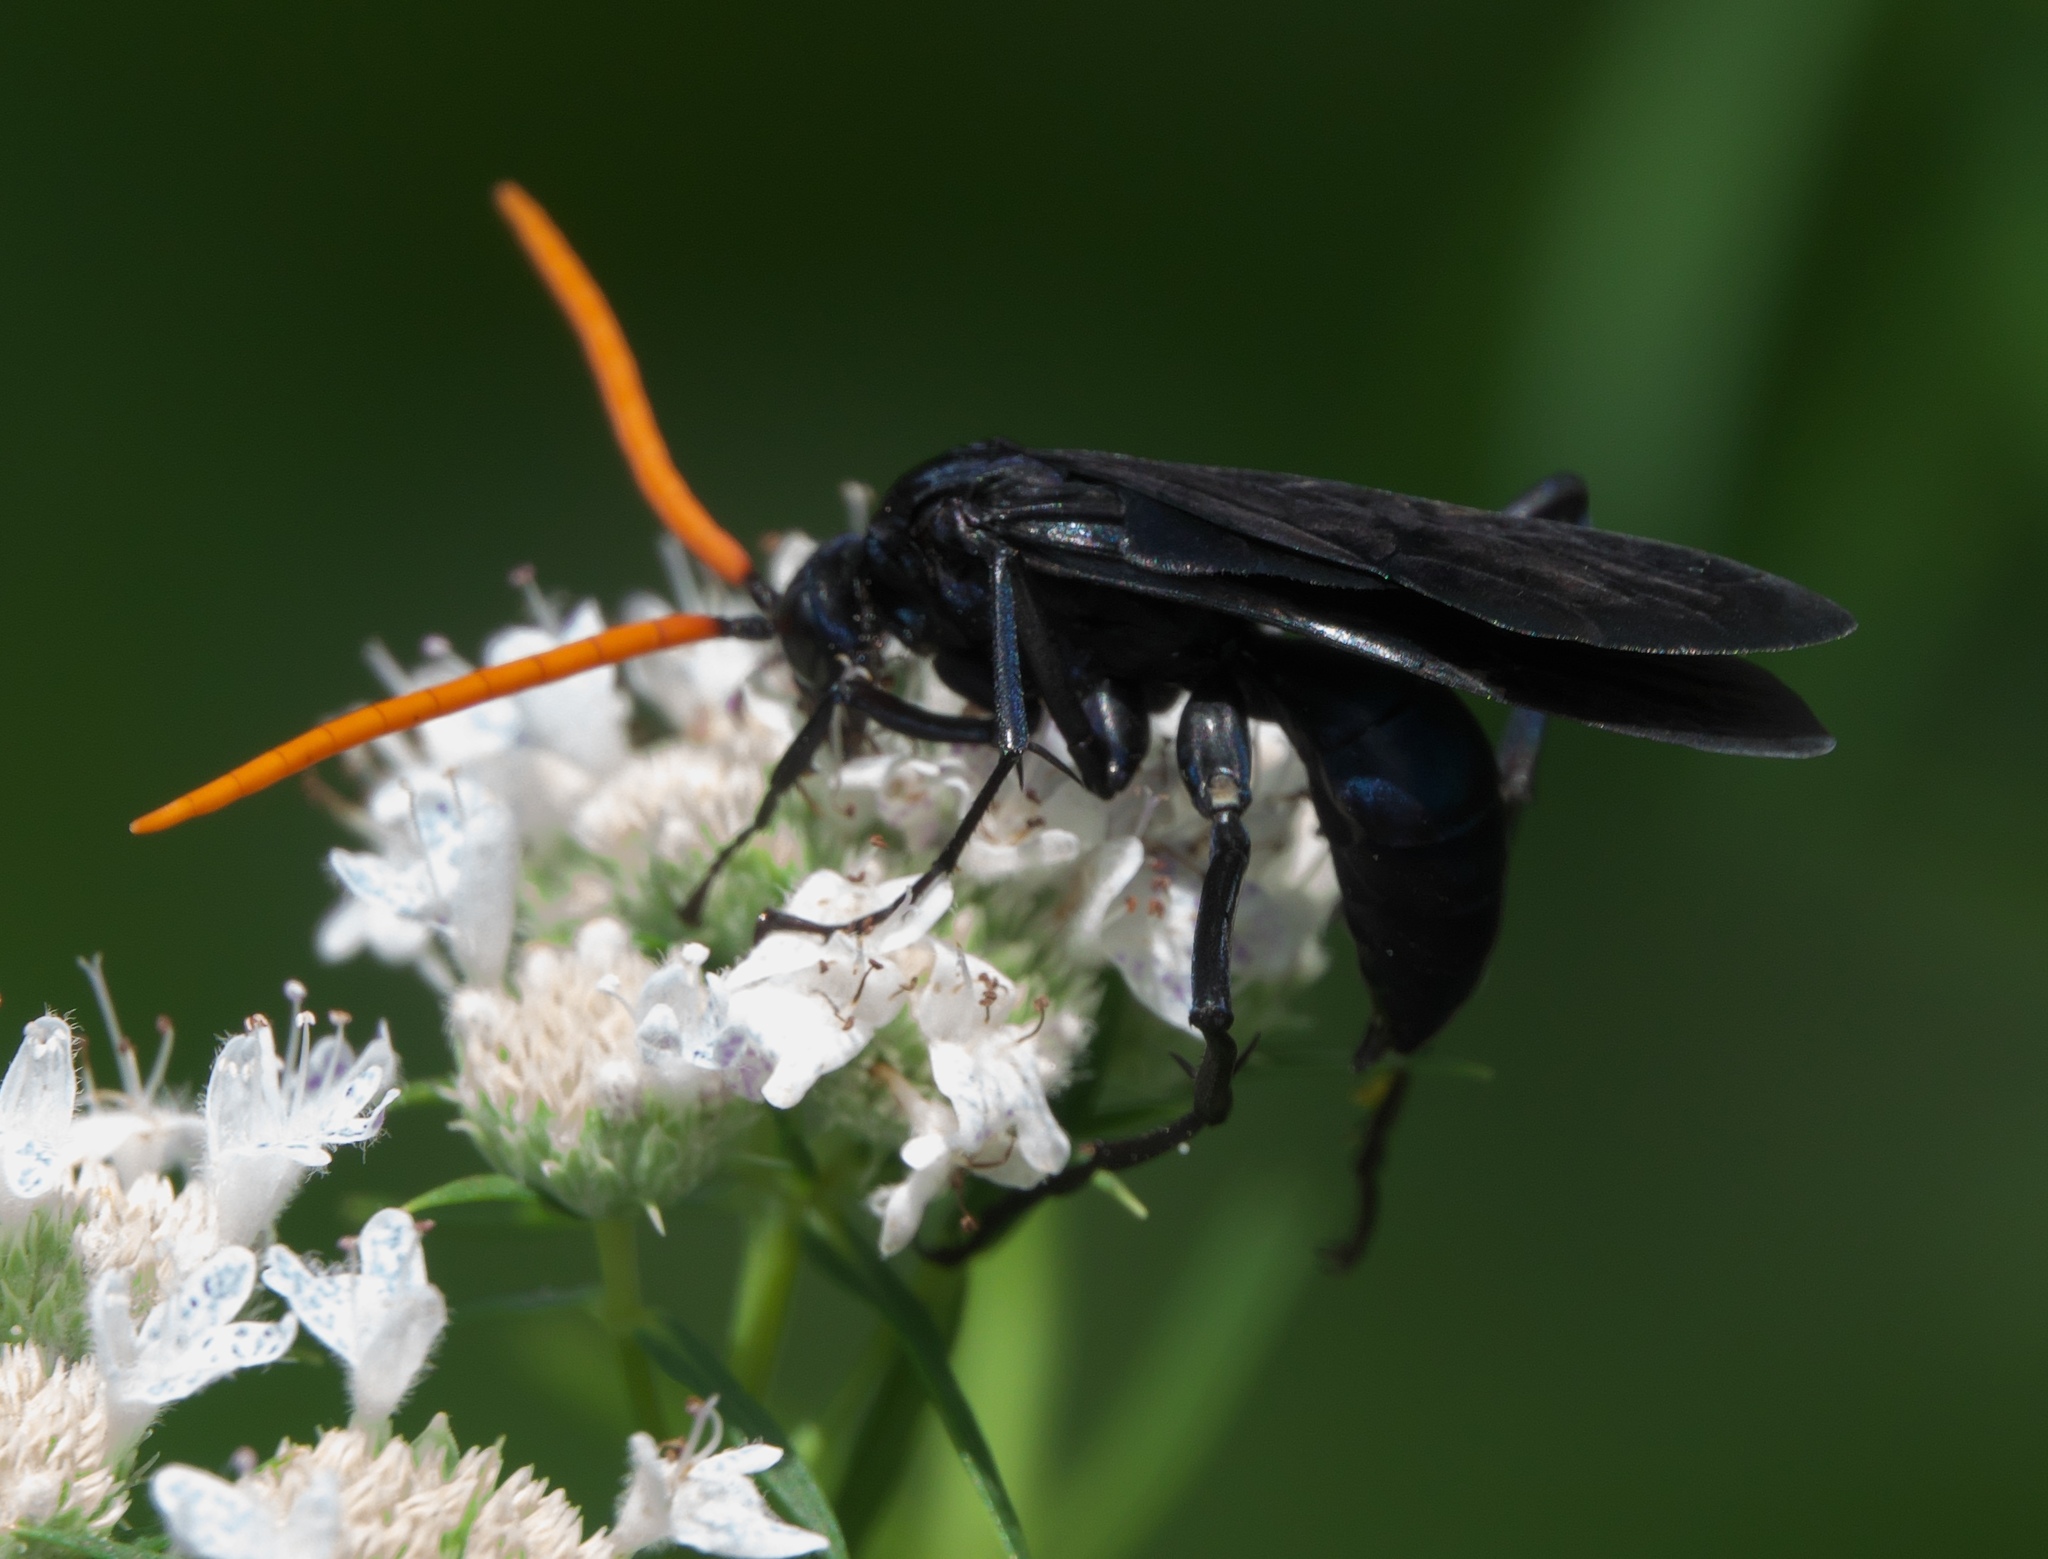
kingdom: Animalia
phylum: Arthropoda
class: Insecta
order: Hymenoptera
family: Pompilidae
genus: Pepsis
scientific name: Pepsis menechma
